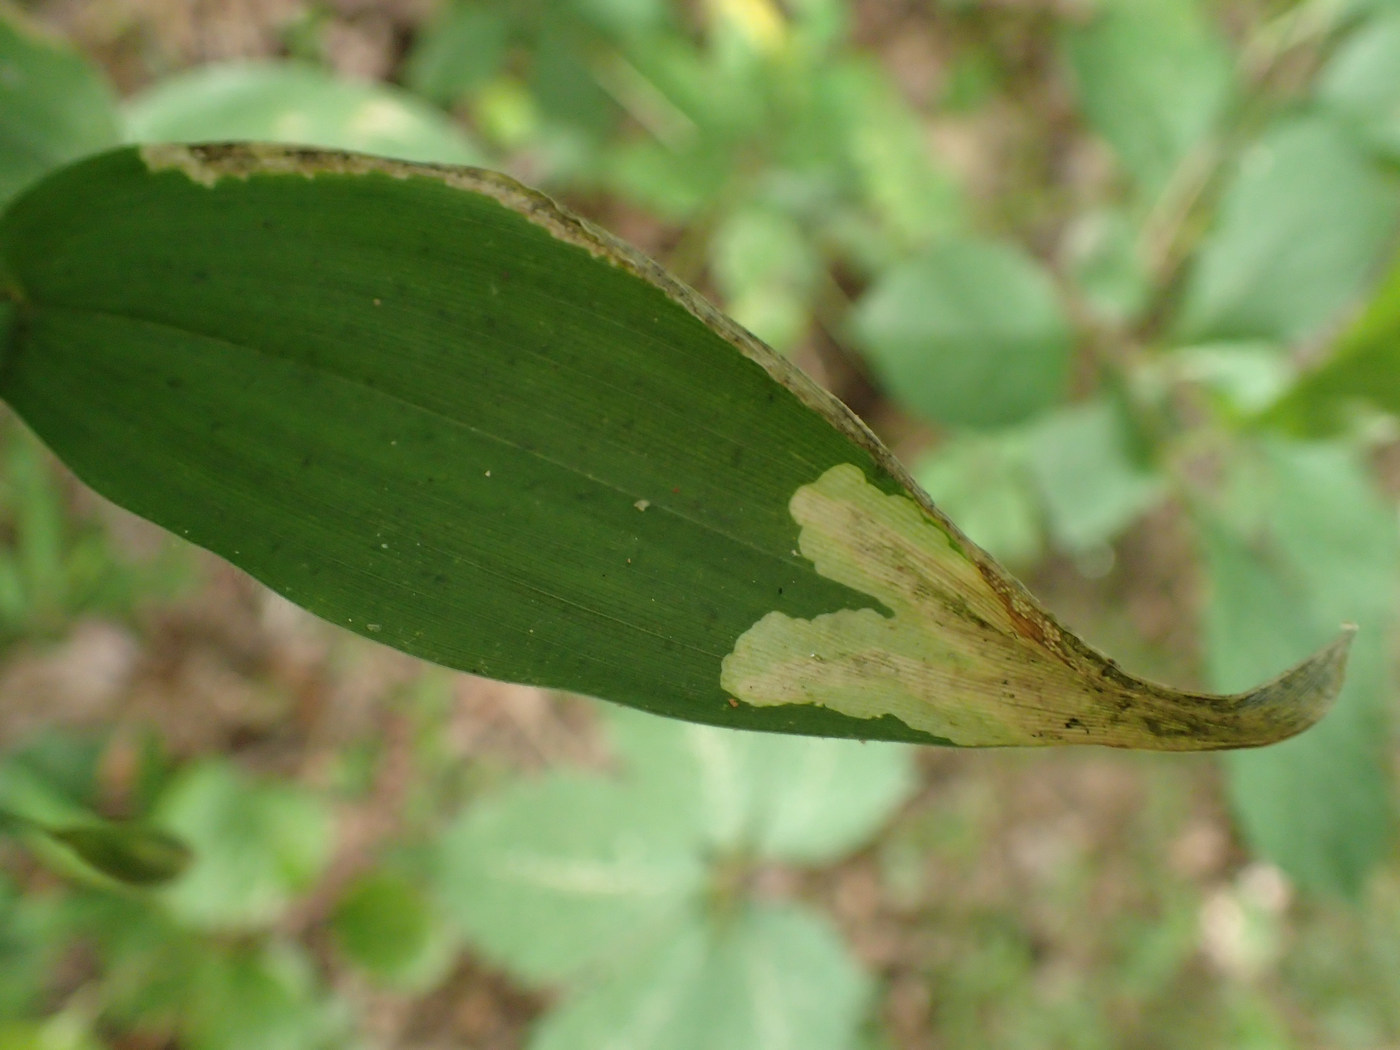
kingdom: Animalia
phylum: Arthropoda
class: Insecta
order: Diptera
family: Agromyzidae
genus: Cerodontha
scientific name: Cerodontha angulata
